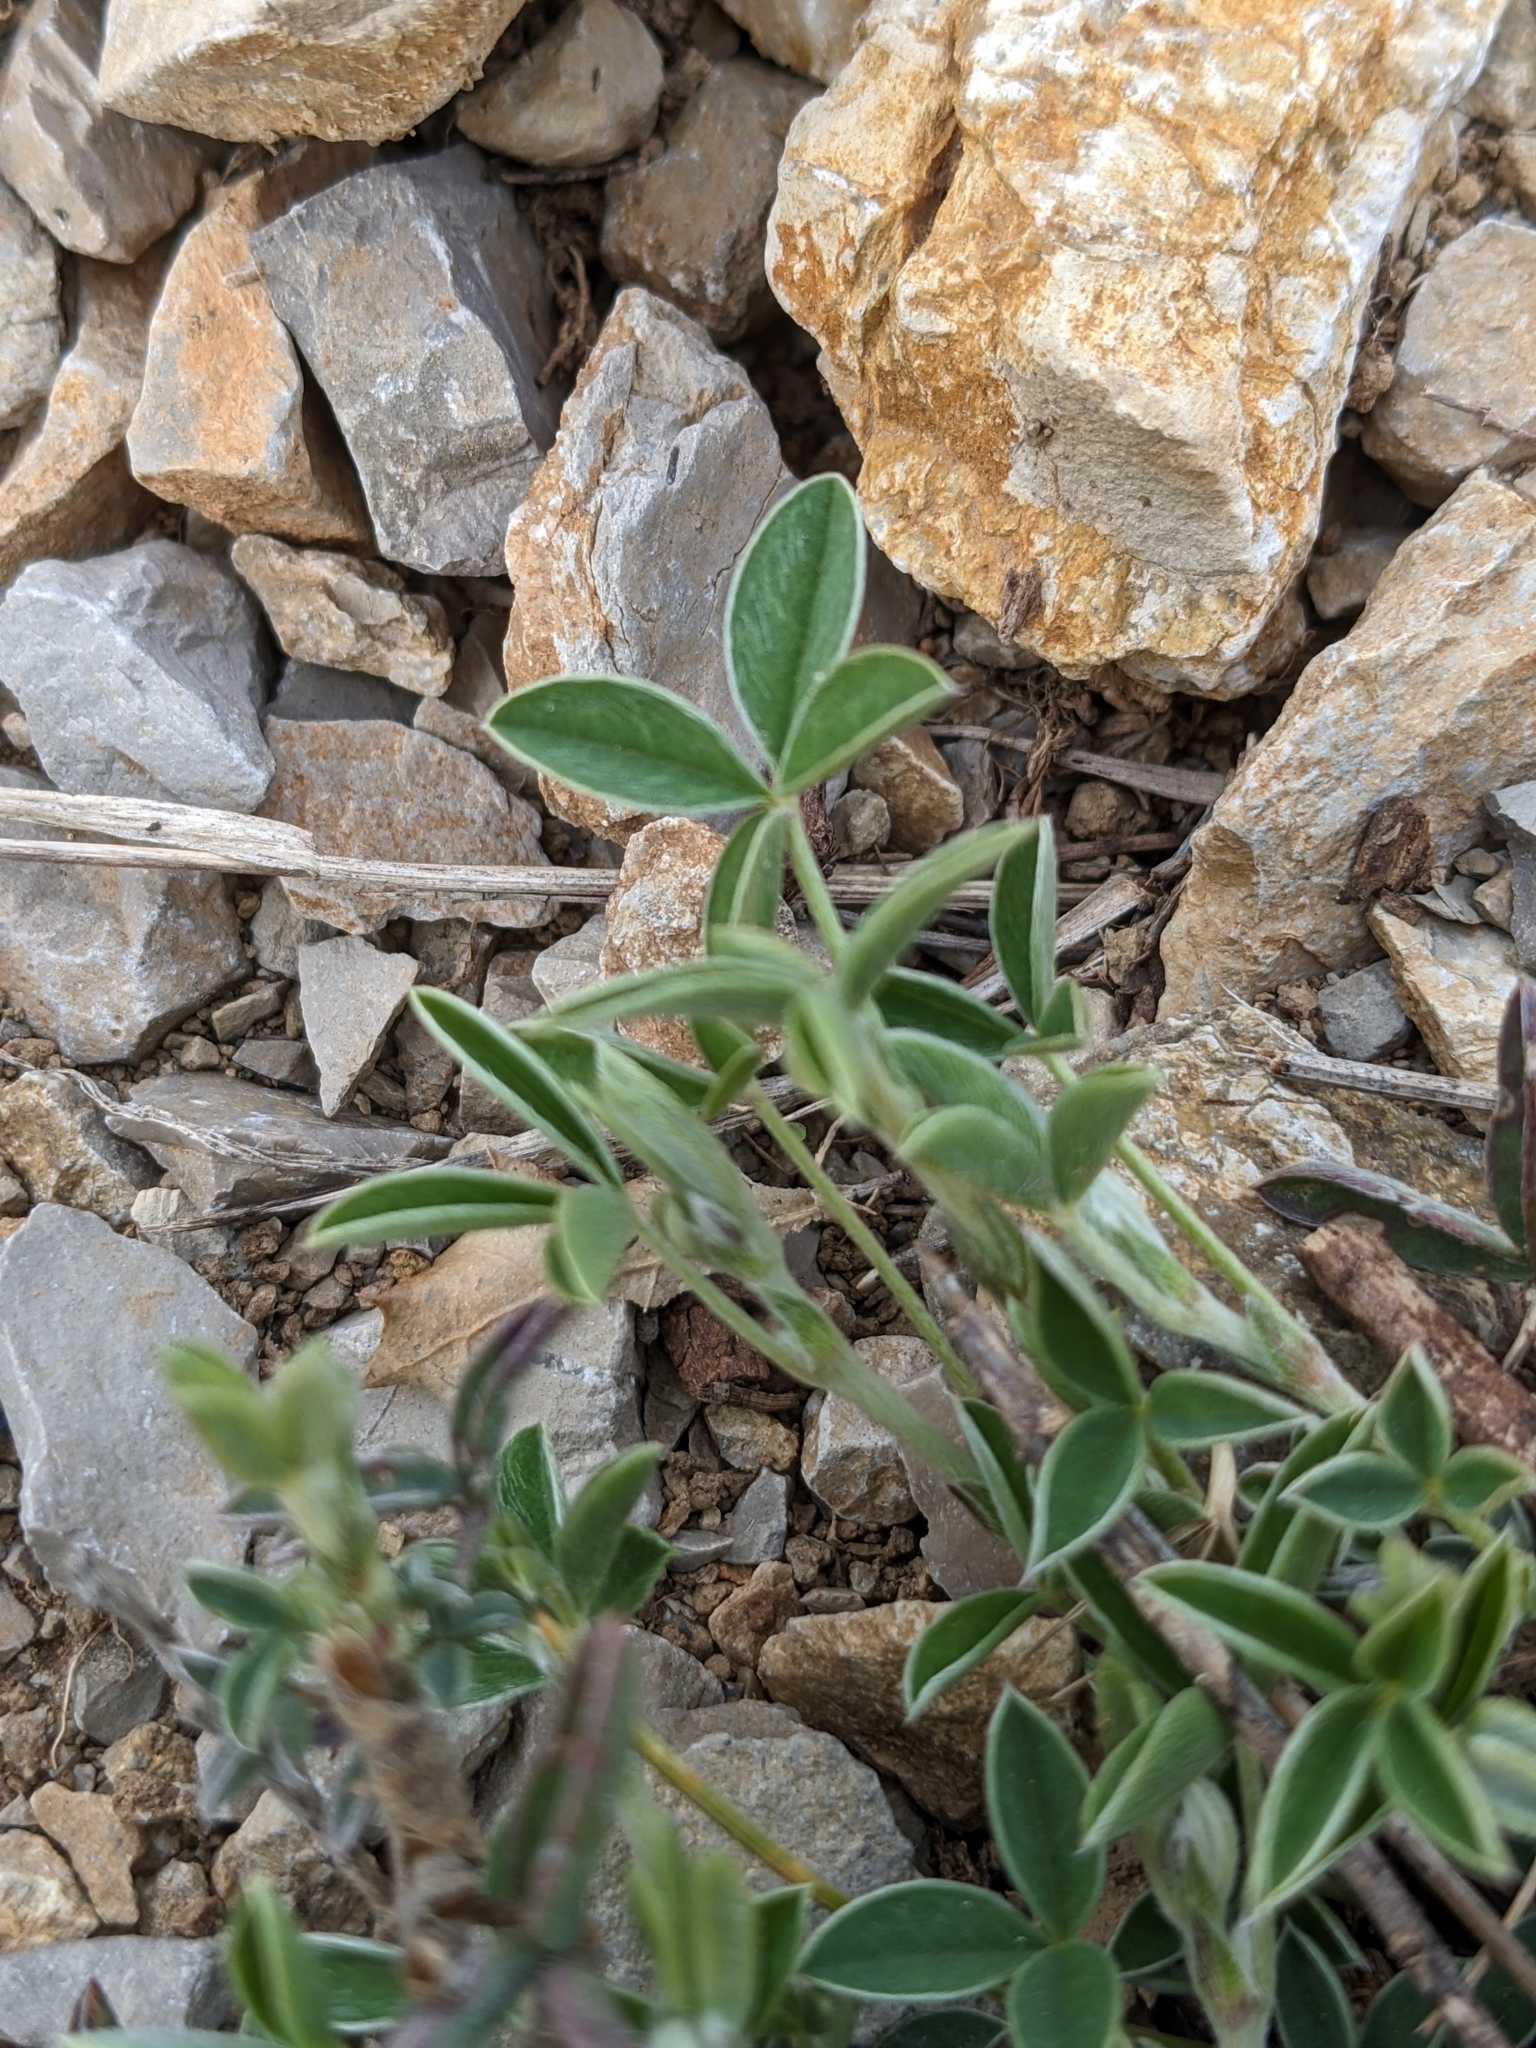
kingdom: Plantae
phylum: Tracheophyta
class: Magnoliopsida
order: Fabales
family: Fabaceae
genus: Argyrolobium
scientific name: Argyrolobium zanonii
